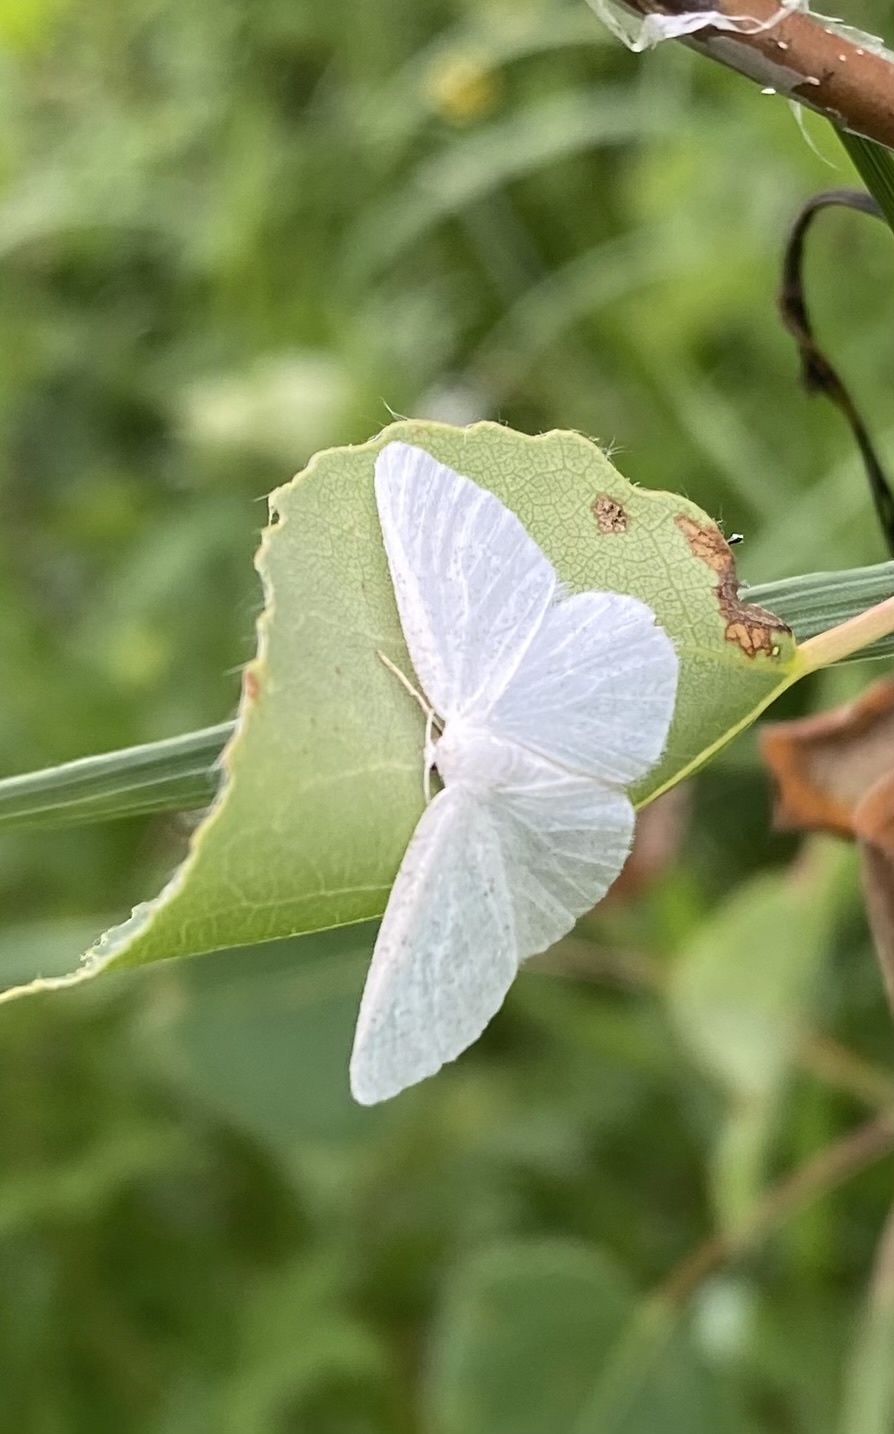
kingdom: Animalia
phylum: Arthropoda
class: Insecta
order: Lepidoptera
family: Geometridae
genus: Protitame
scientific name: Protitame virginalis
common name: Virgin moth
